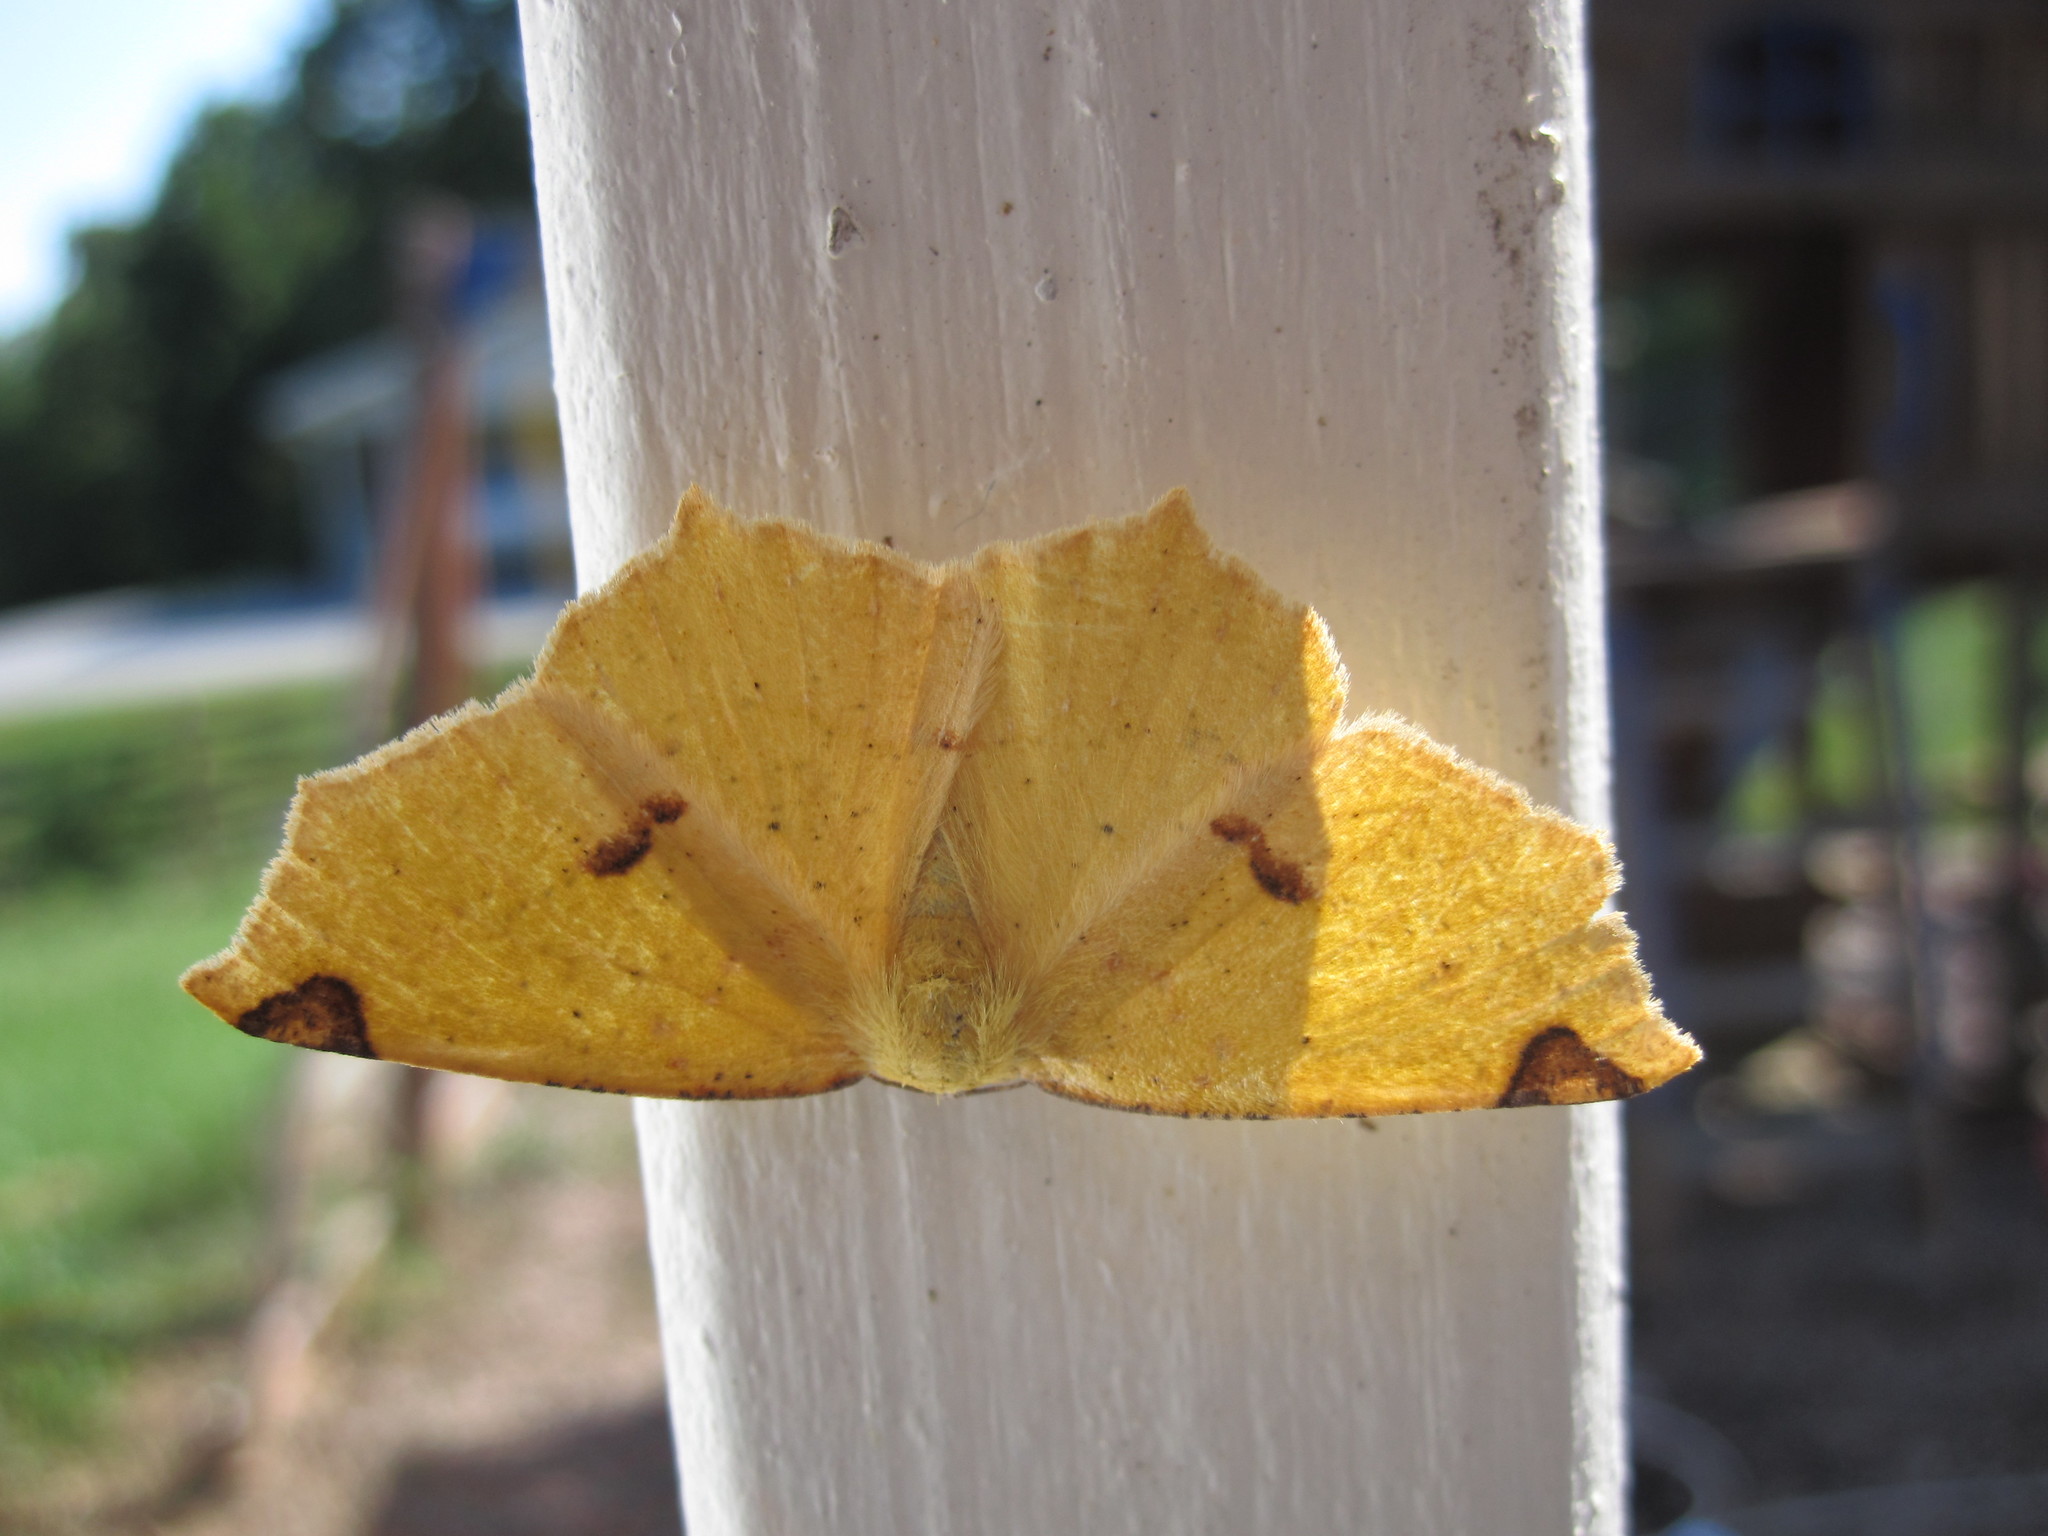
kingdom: Animalia
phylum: Arthropoda
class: Insecta
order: Lepidoptera
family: Geometridae
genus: Antepione
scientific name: Antepione thisoaria
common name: Variable antipione
